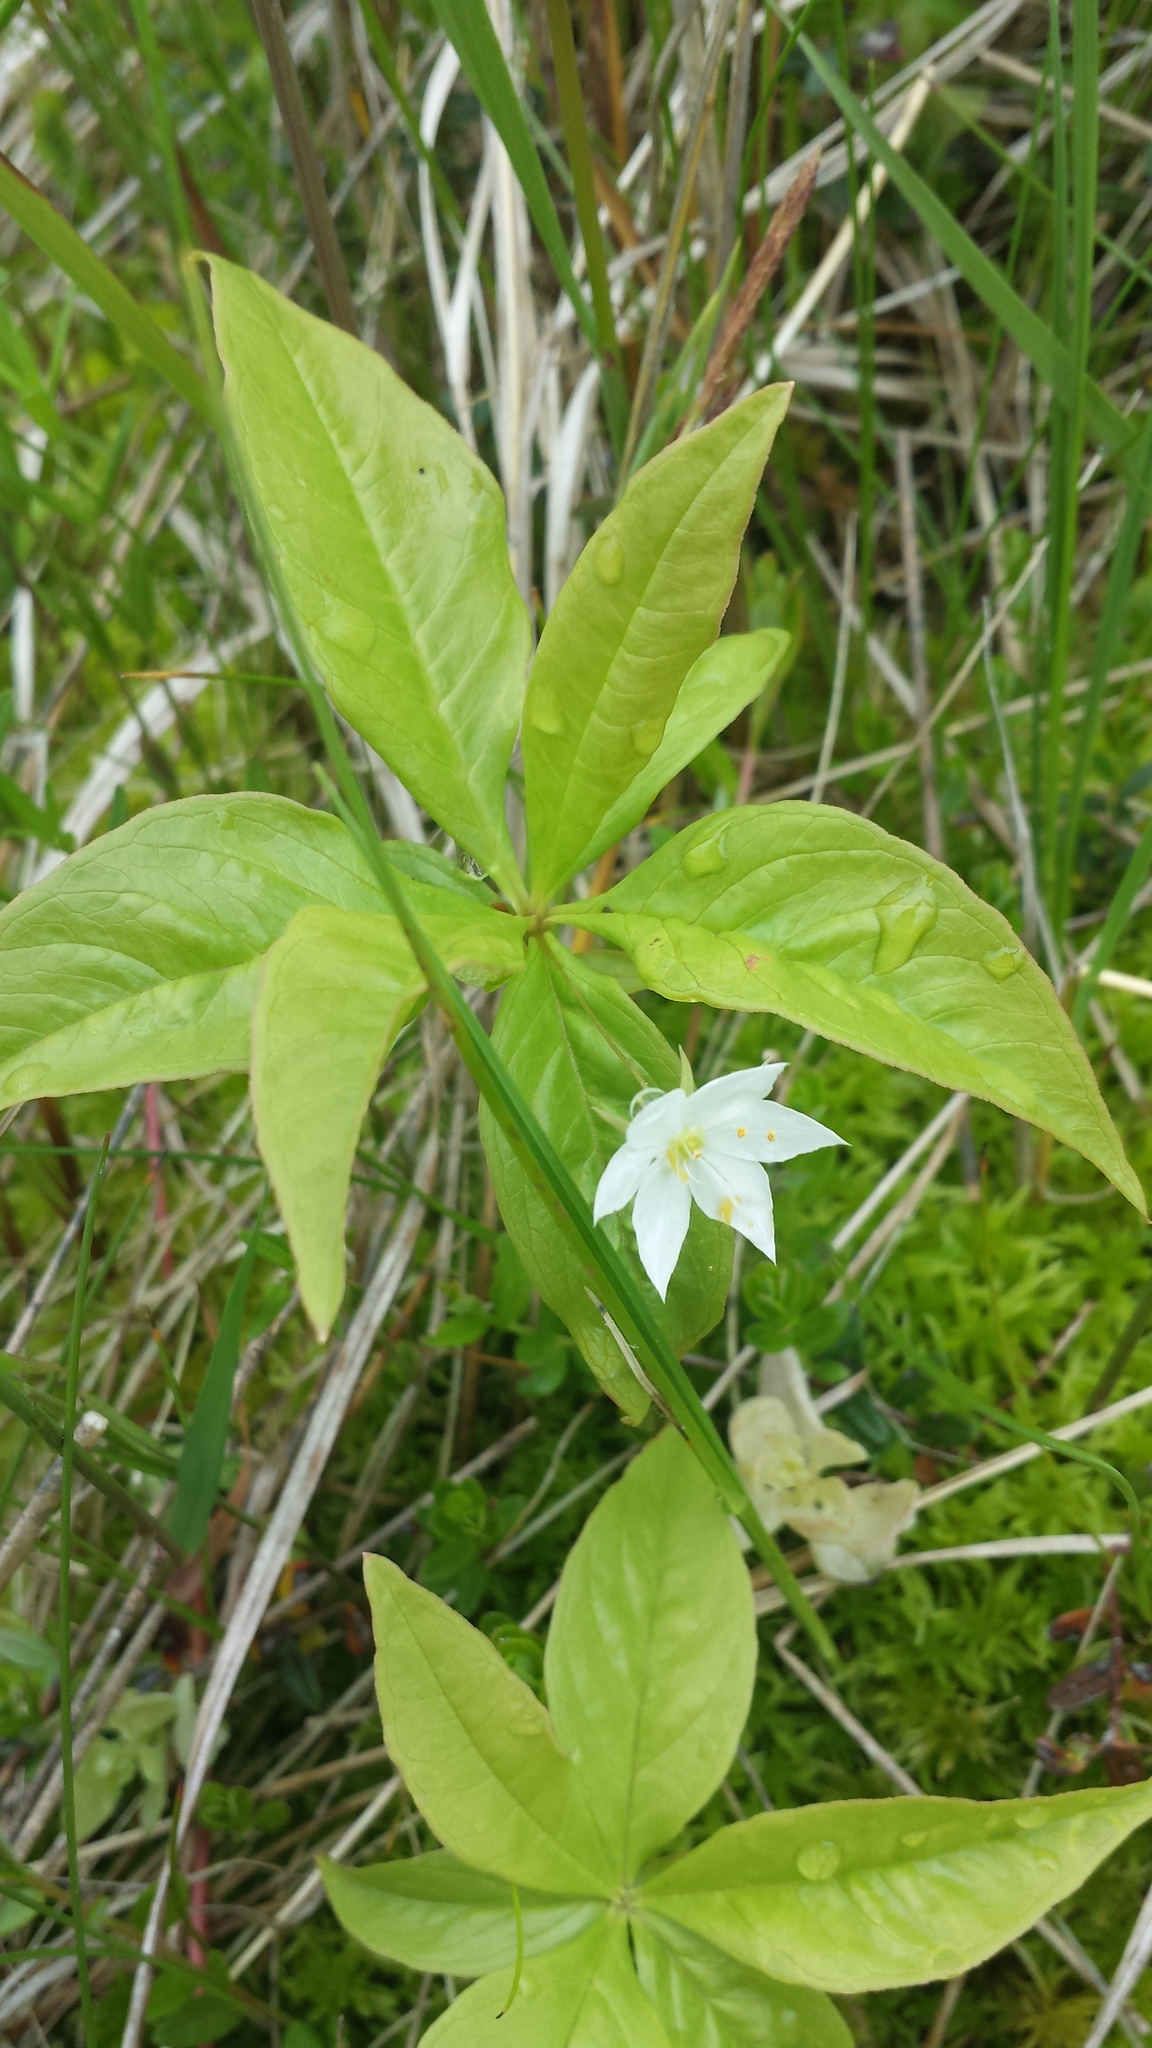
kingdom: Plantae
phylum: Tracheophyta
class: Magnoliopsida
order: Ericales
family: Primulaceae
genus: Lysimachia
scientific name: Lysimachia borealis
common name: American starflower
